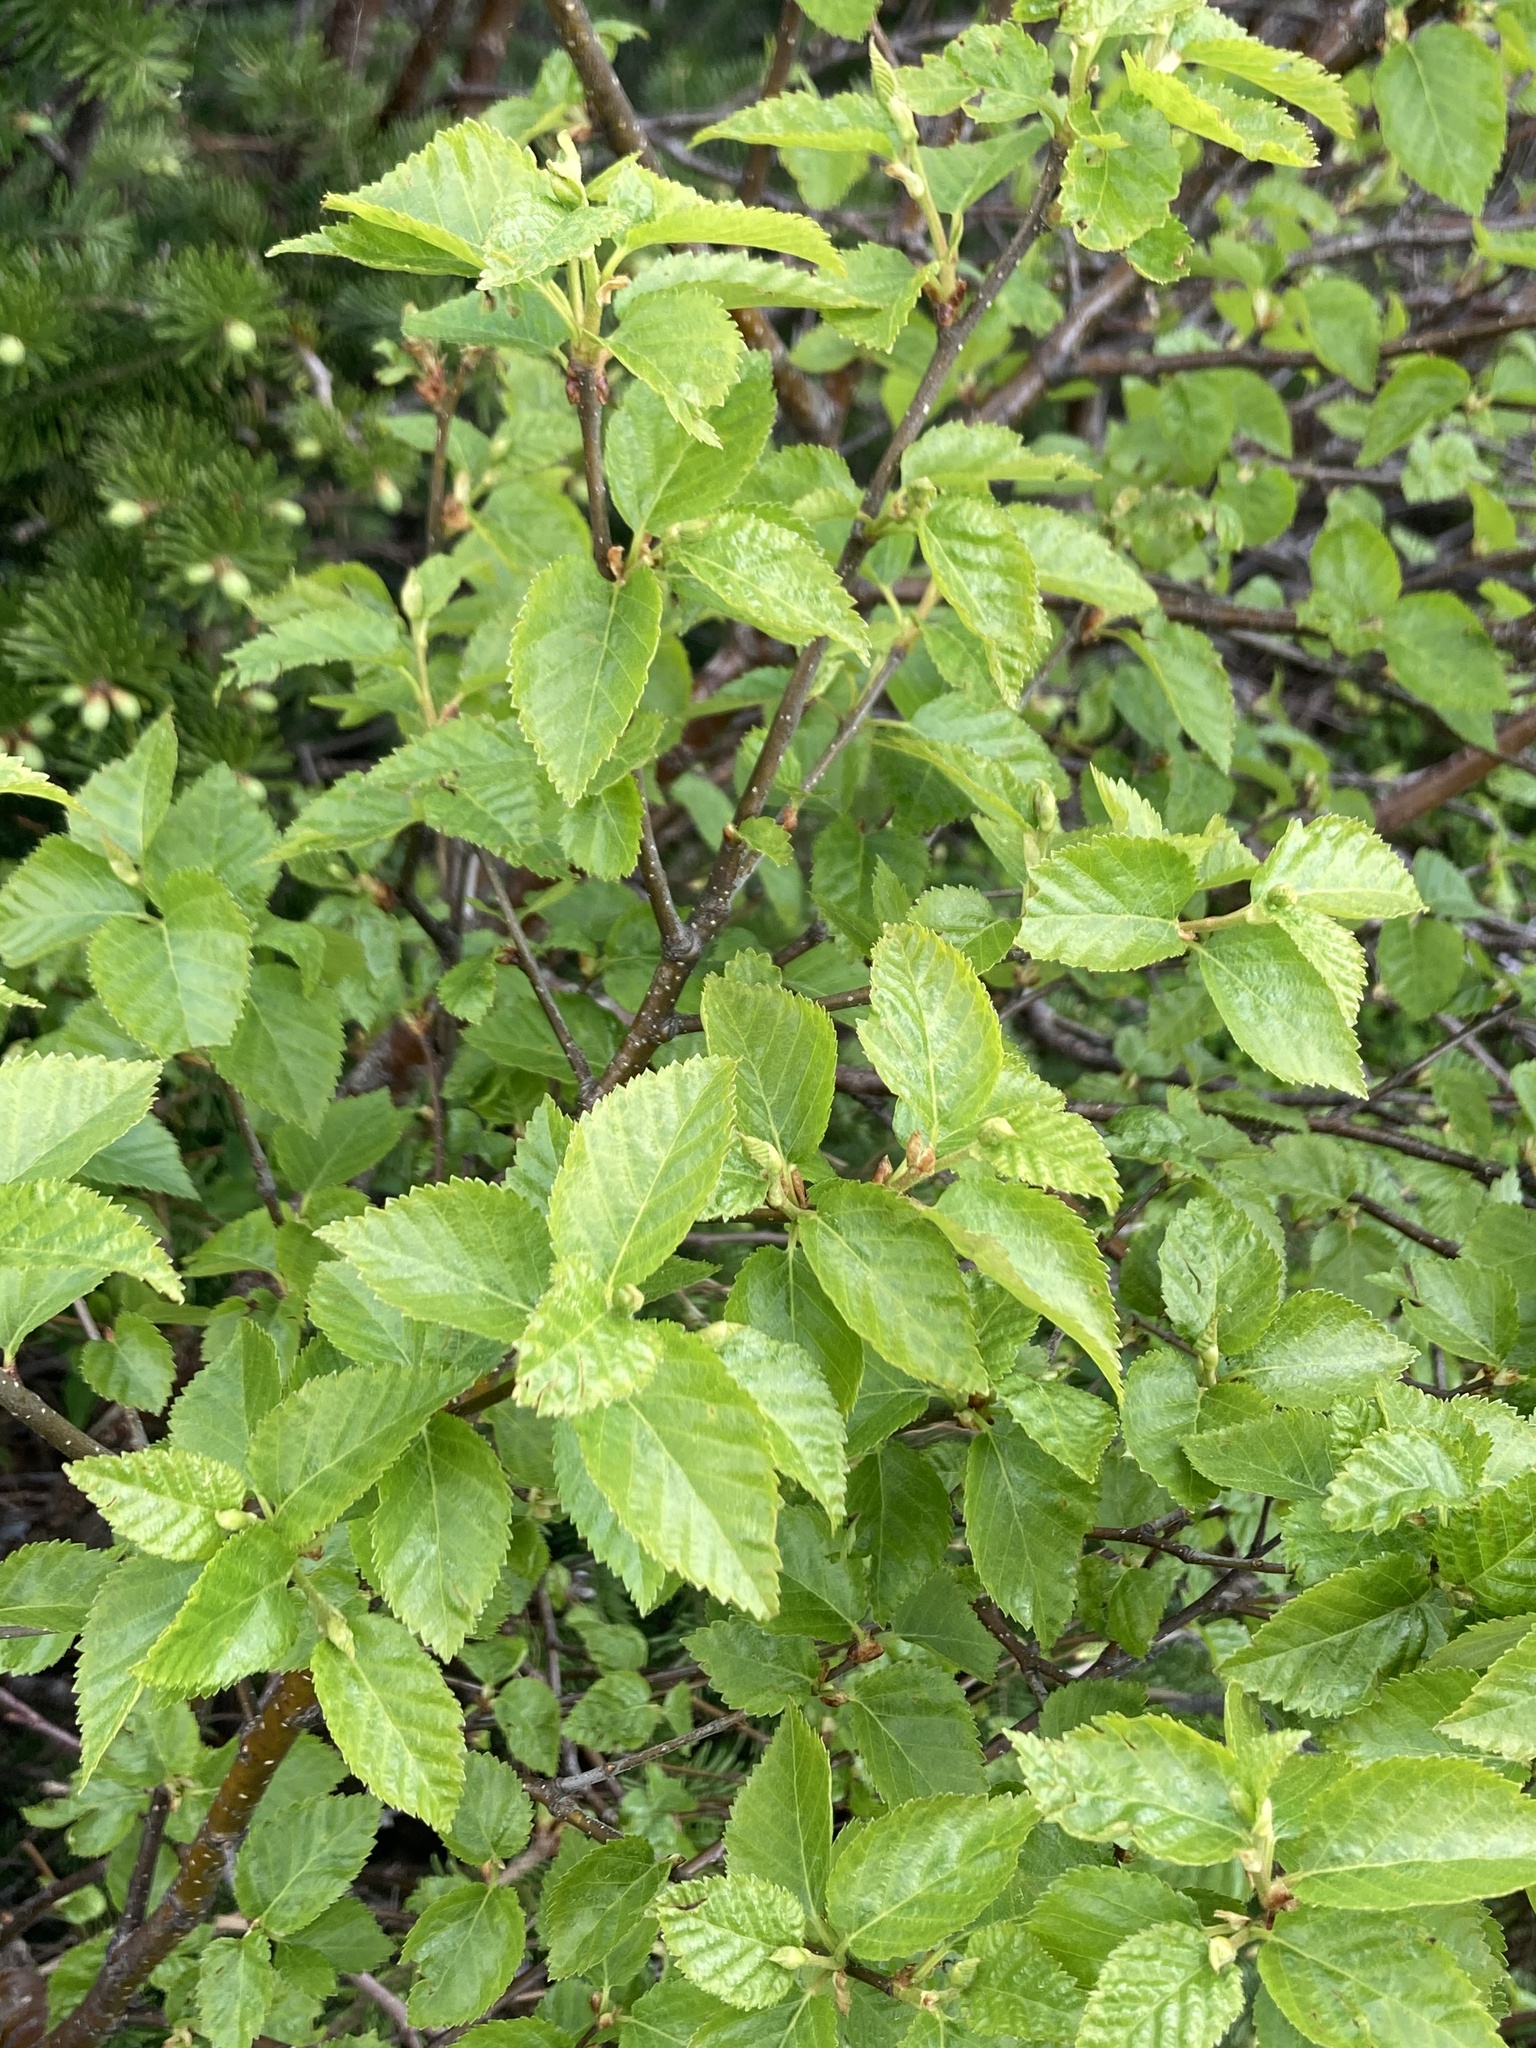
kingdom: Plantae
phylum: Tracheophyta
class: Magnoliopsida
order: Fagales
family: Betulaceae
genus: Betula
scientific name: Betula minor
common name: Dwarf birch
